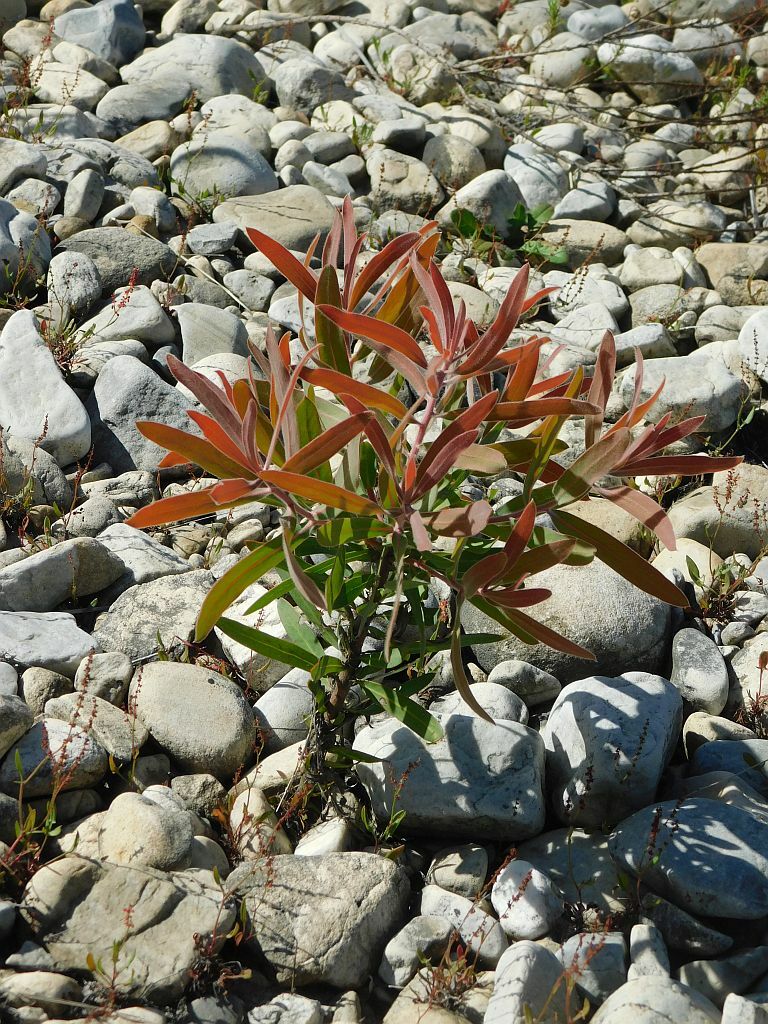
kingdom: Plantae
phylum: Tracheophyta
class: Magnoliopsida
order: Proteales
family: Proteaceae
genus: Protea
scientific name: Protea neriifolia
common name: Blue sugarbush
